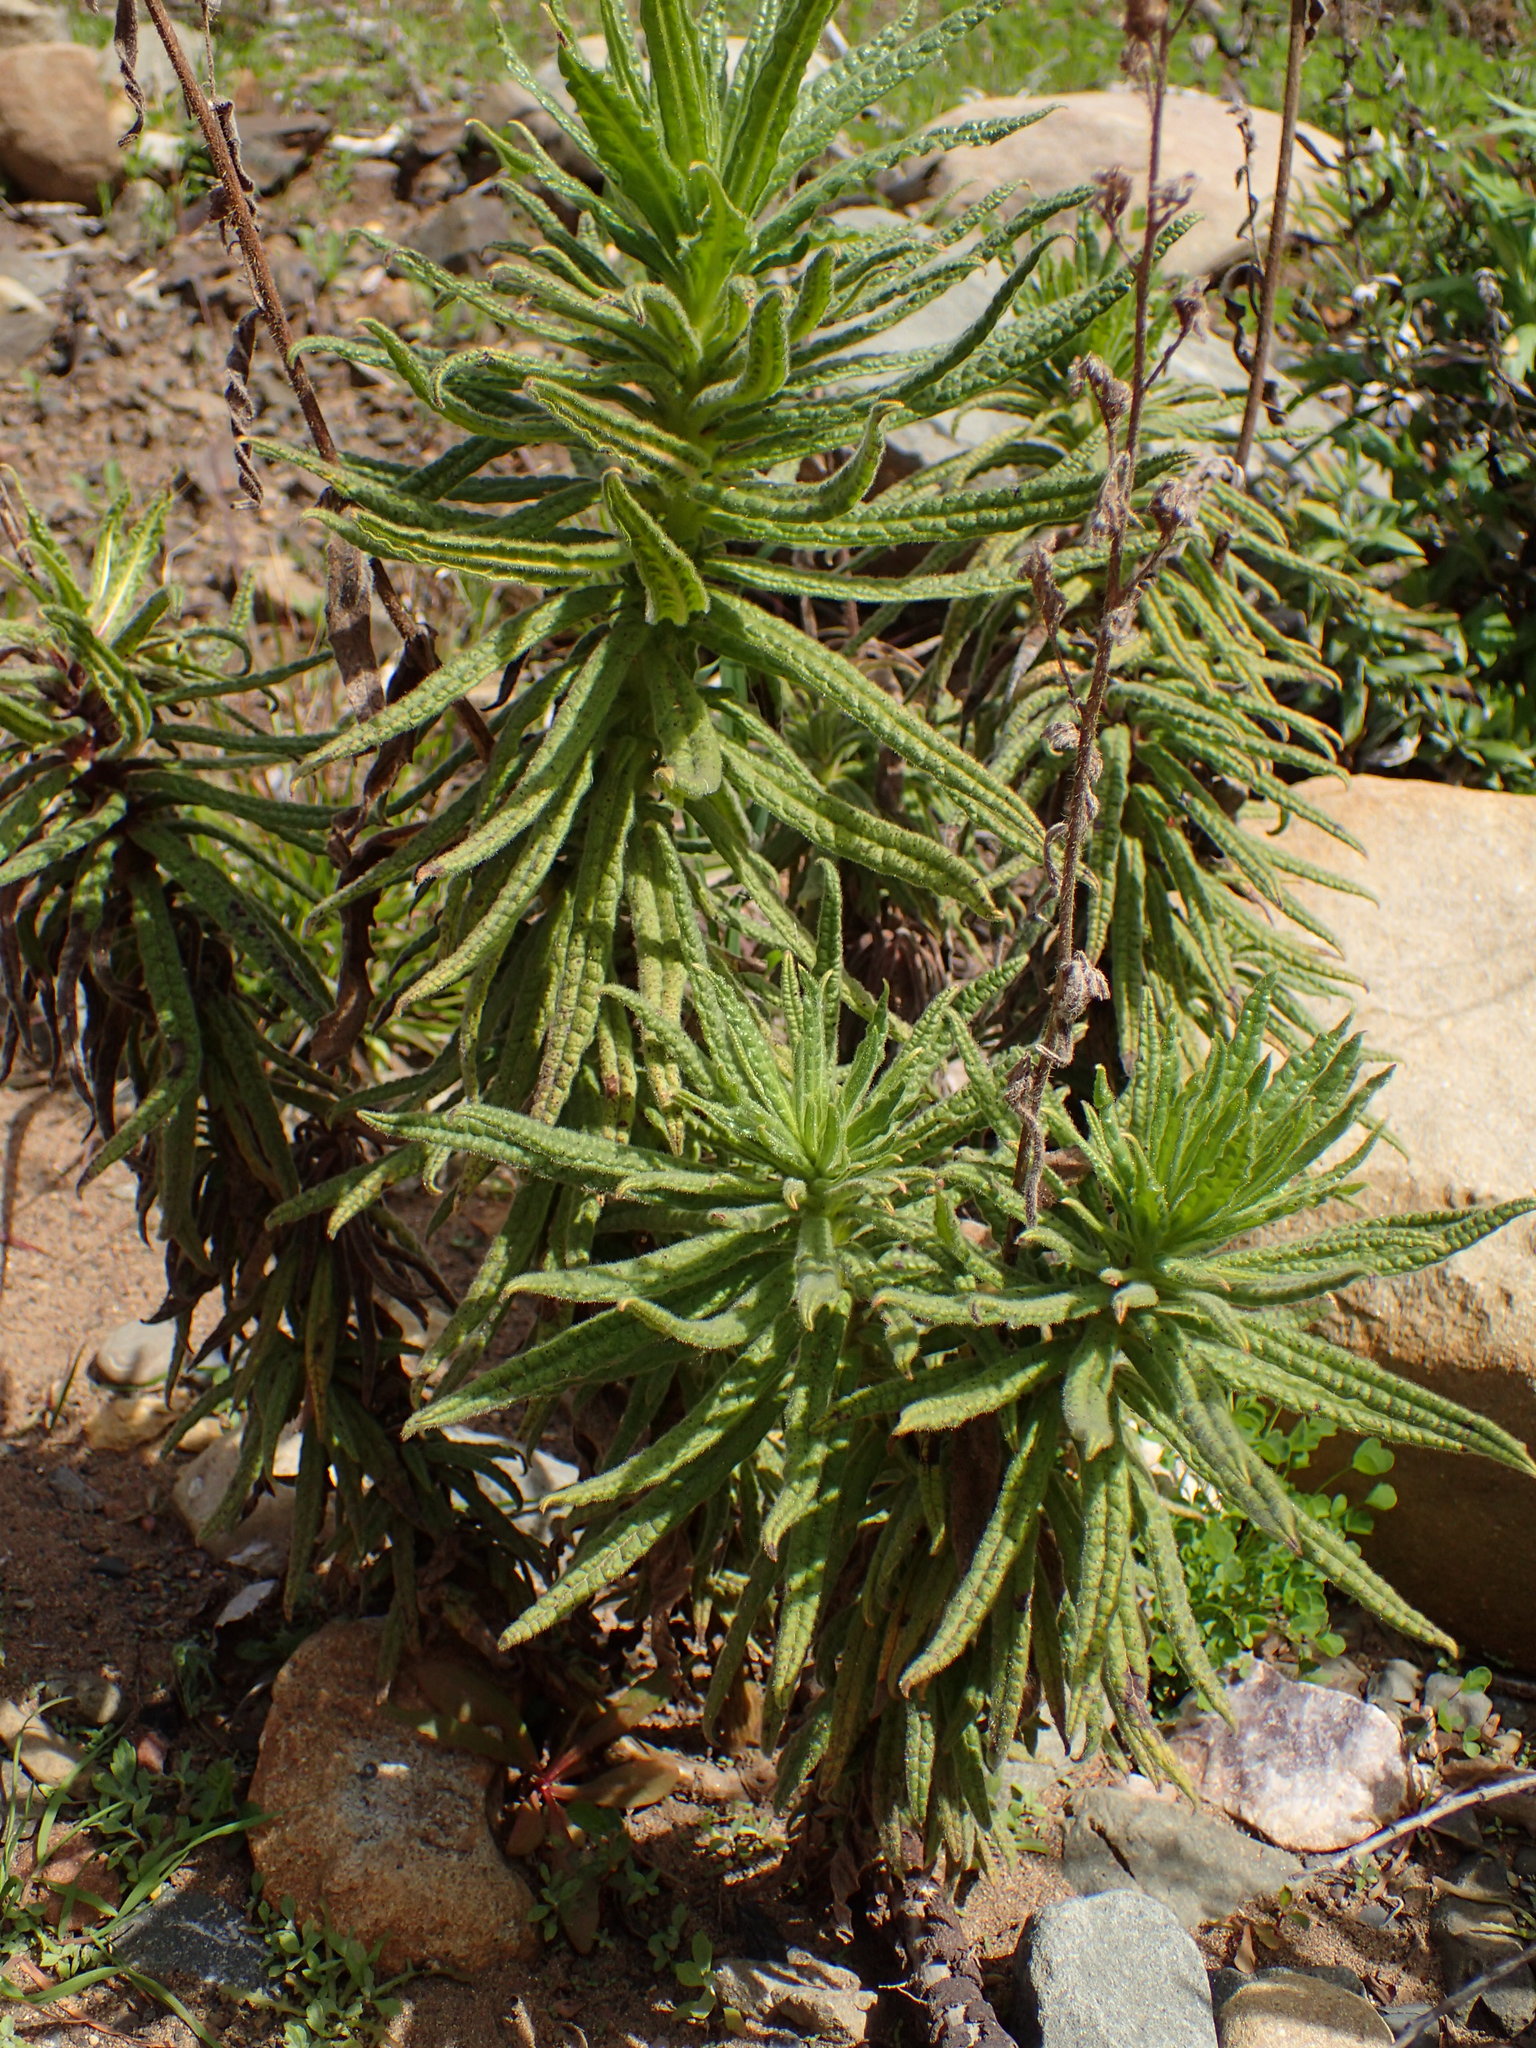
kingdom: Plantae
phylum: Tracheophyta
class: Magnoliopsida
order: Boraginales
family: Namaceae
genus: Turricula
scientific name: Turricula parryi
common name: Poodle-dog-bush
